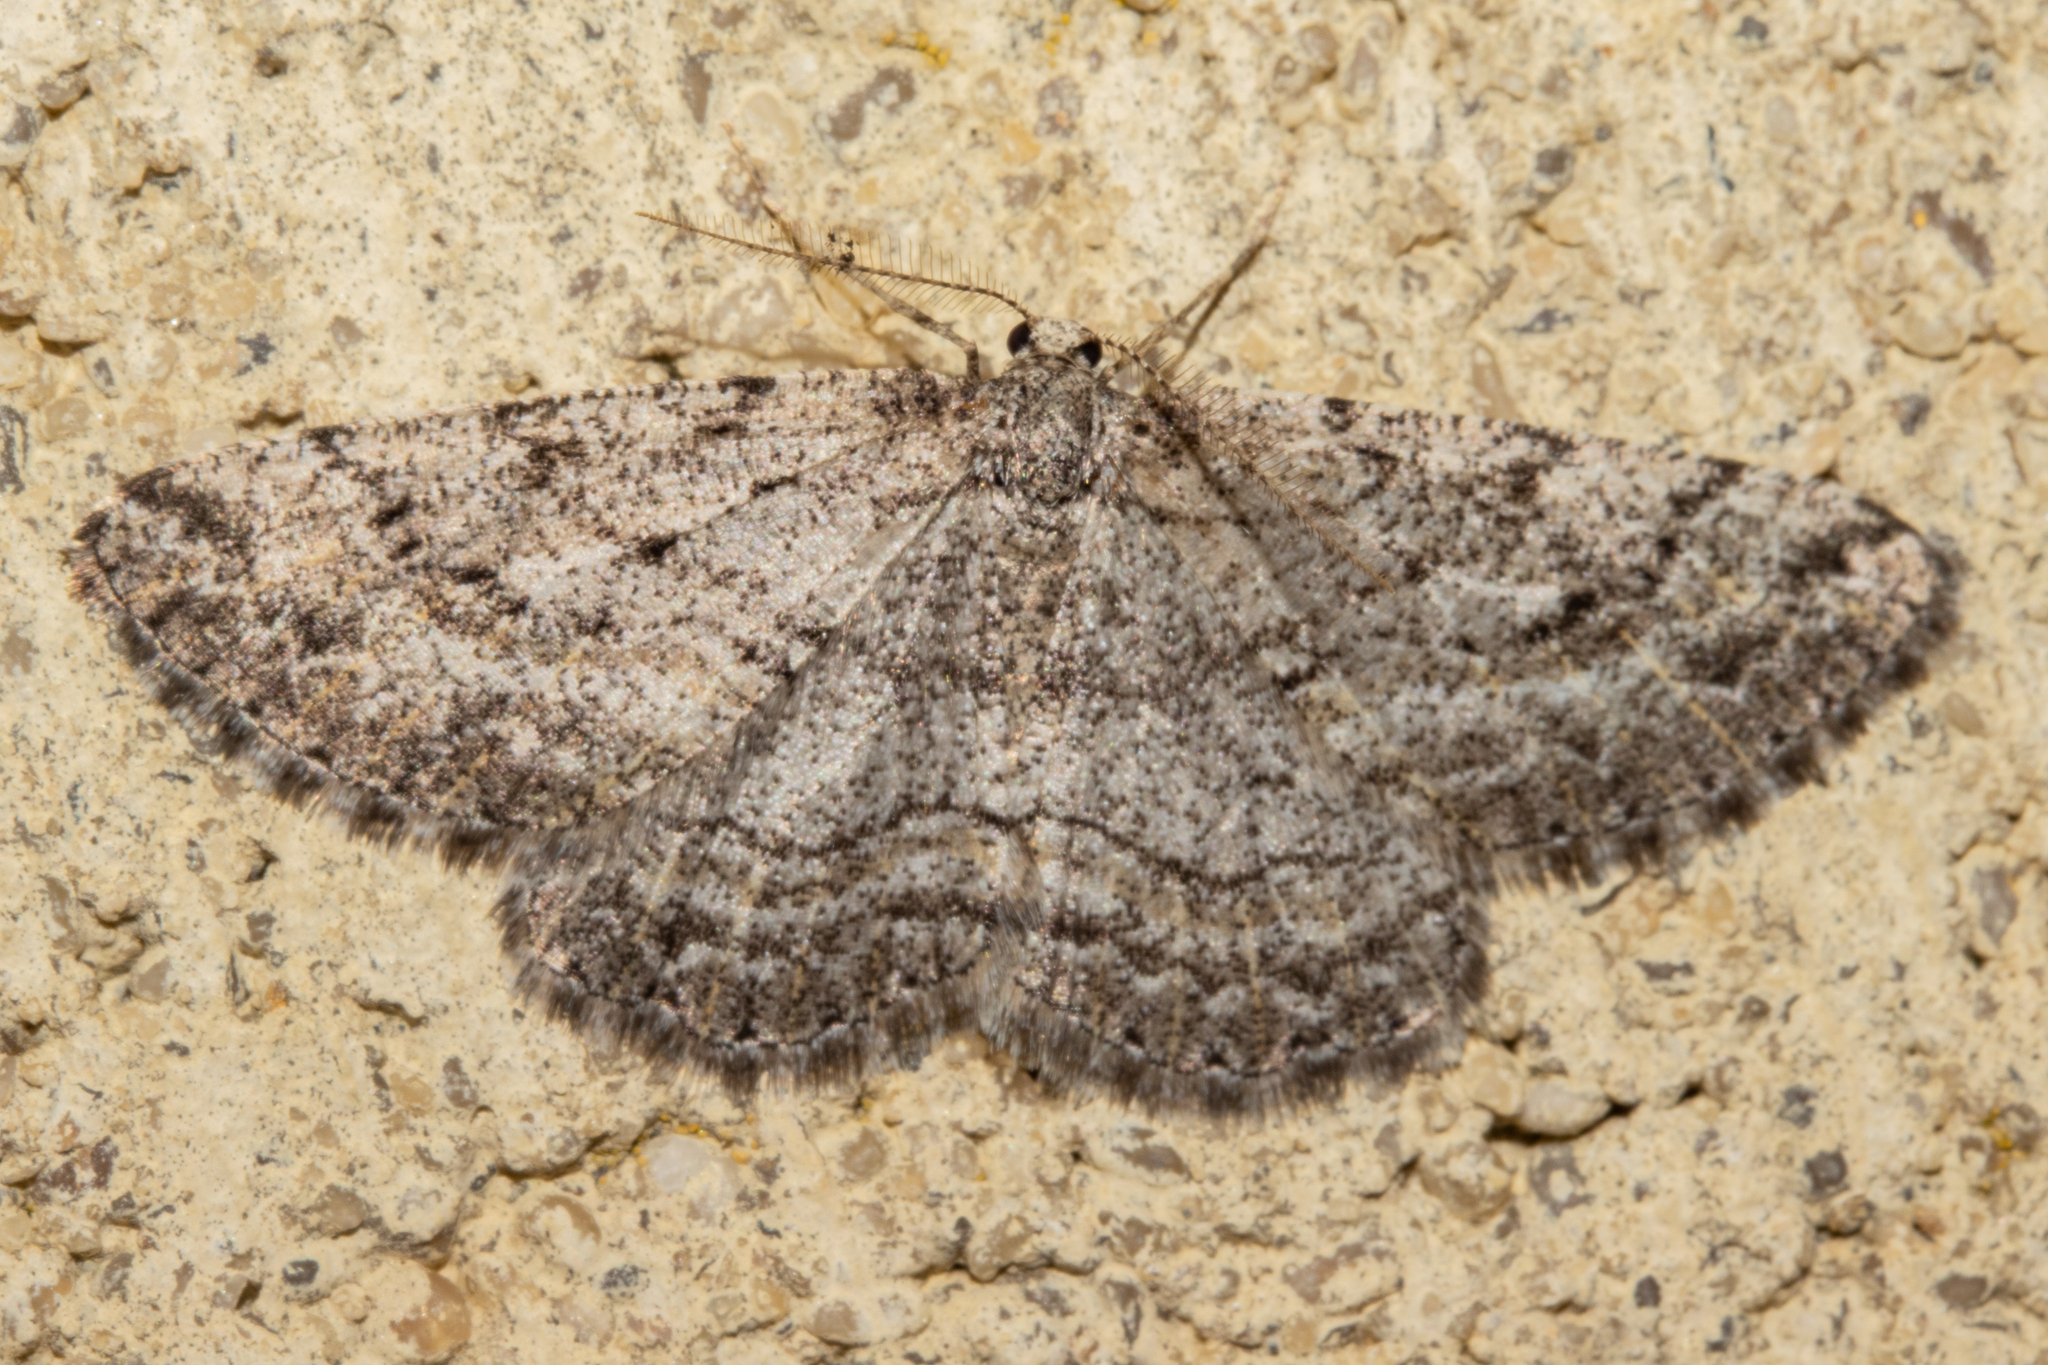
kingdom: Animalia
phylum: Arthropoda
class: Insecta
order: Lepidoptera
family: Geometridae
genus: Zermizinga
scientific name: Zermizinga indocilisaria
